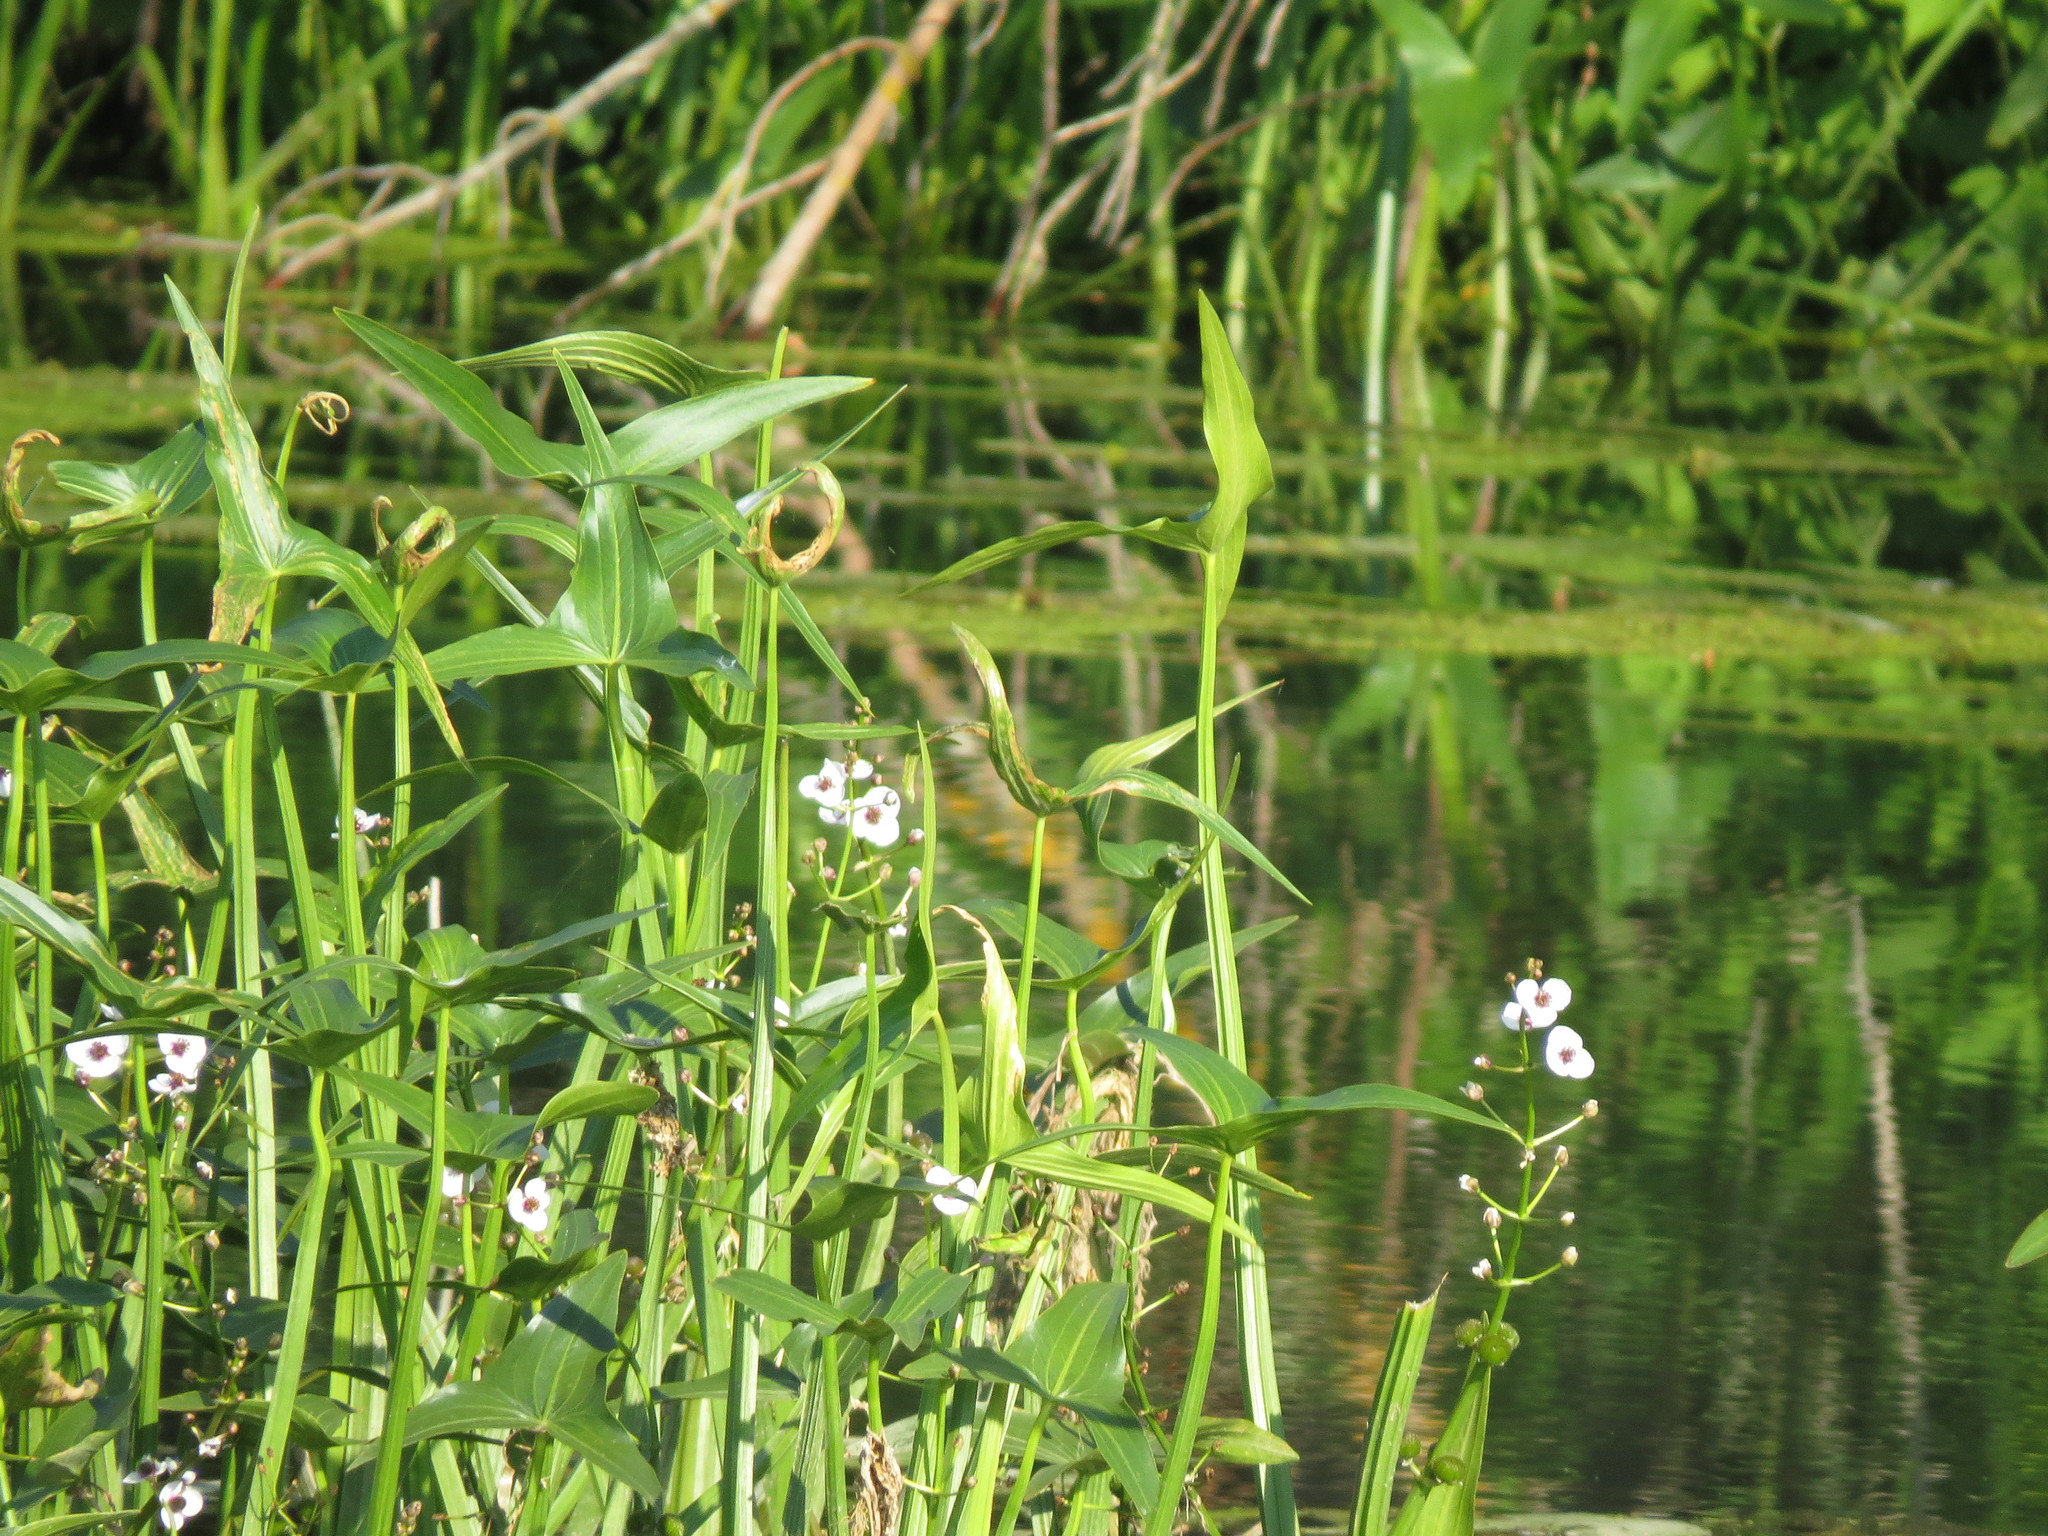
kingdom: Plantae
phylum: Tracheophyta
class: Liliopsida
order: Alismatales
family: Alismataceae
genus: Sagittaria
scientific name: Sagittaria sagittifolia
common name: Arrowhead
